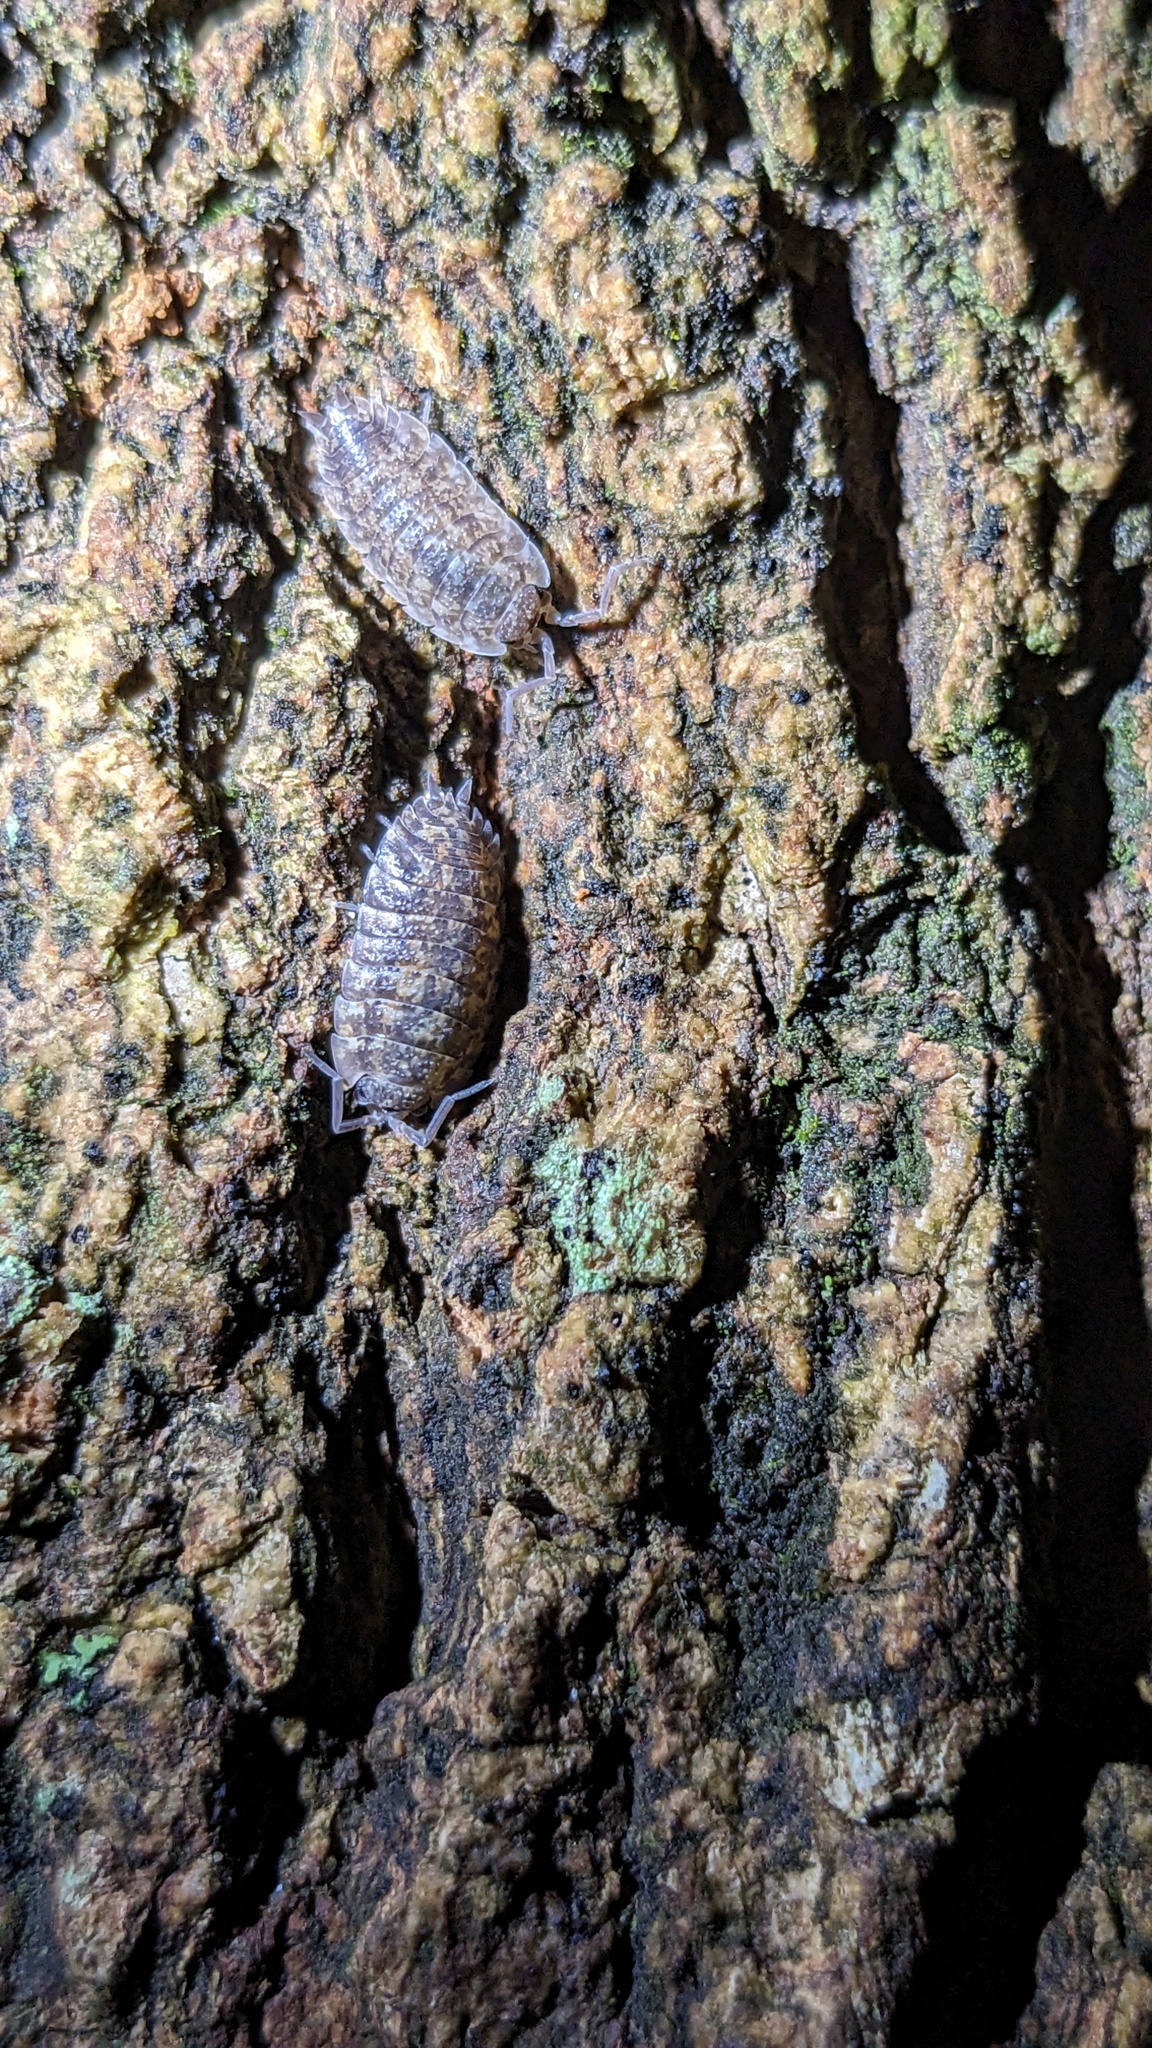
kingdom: Animalia
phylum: Arthropoda
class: Malacostraca
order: Isopoda
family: Porcellionidae
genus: Porcellio
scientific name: Porcellio scaber
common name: Common rough woodlouse
